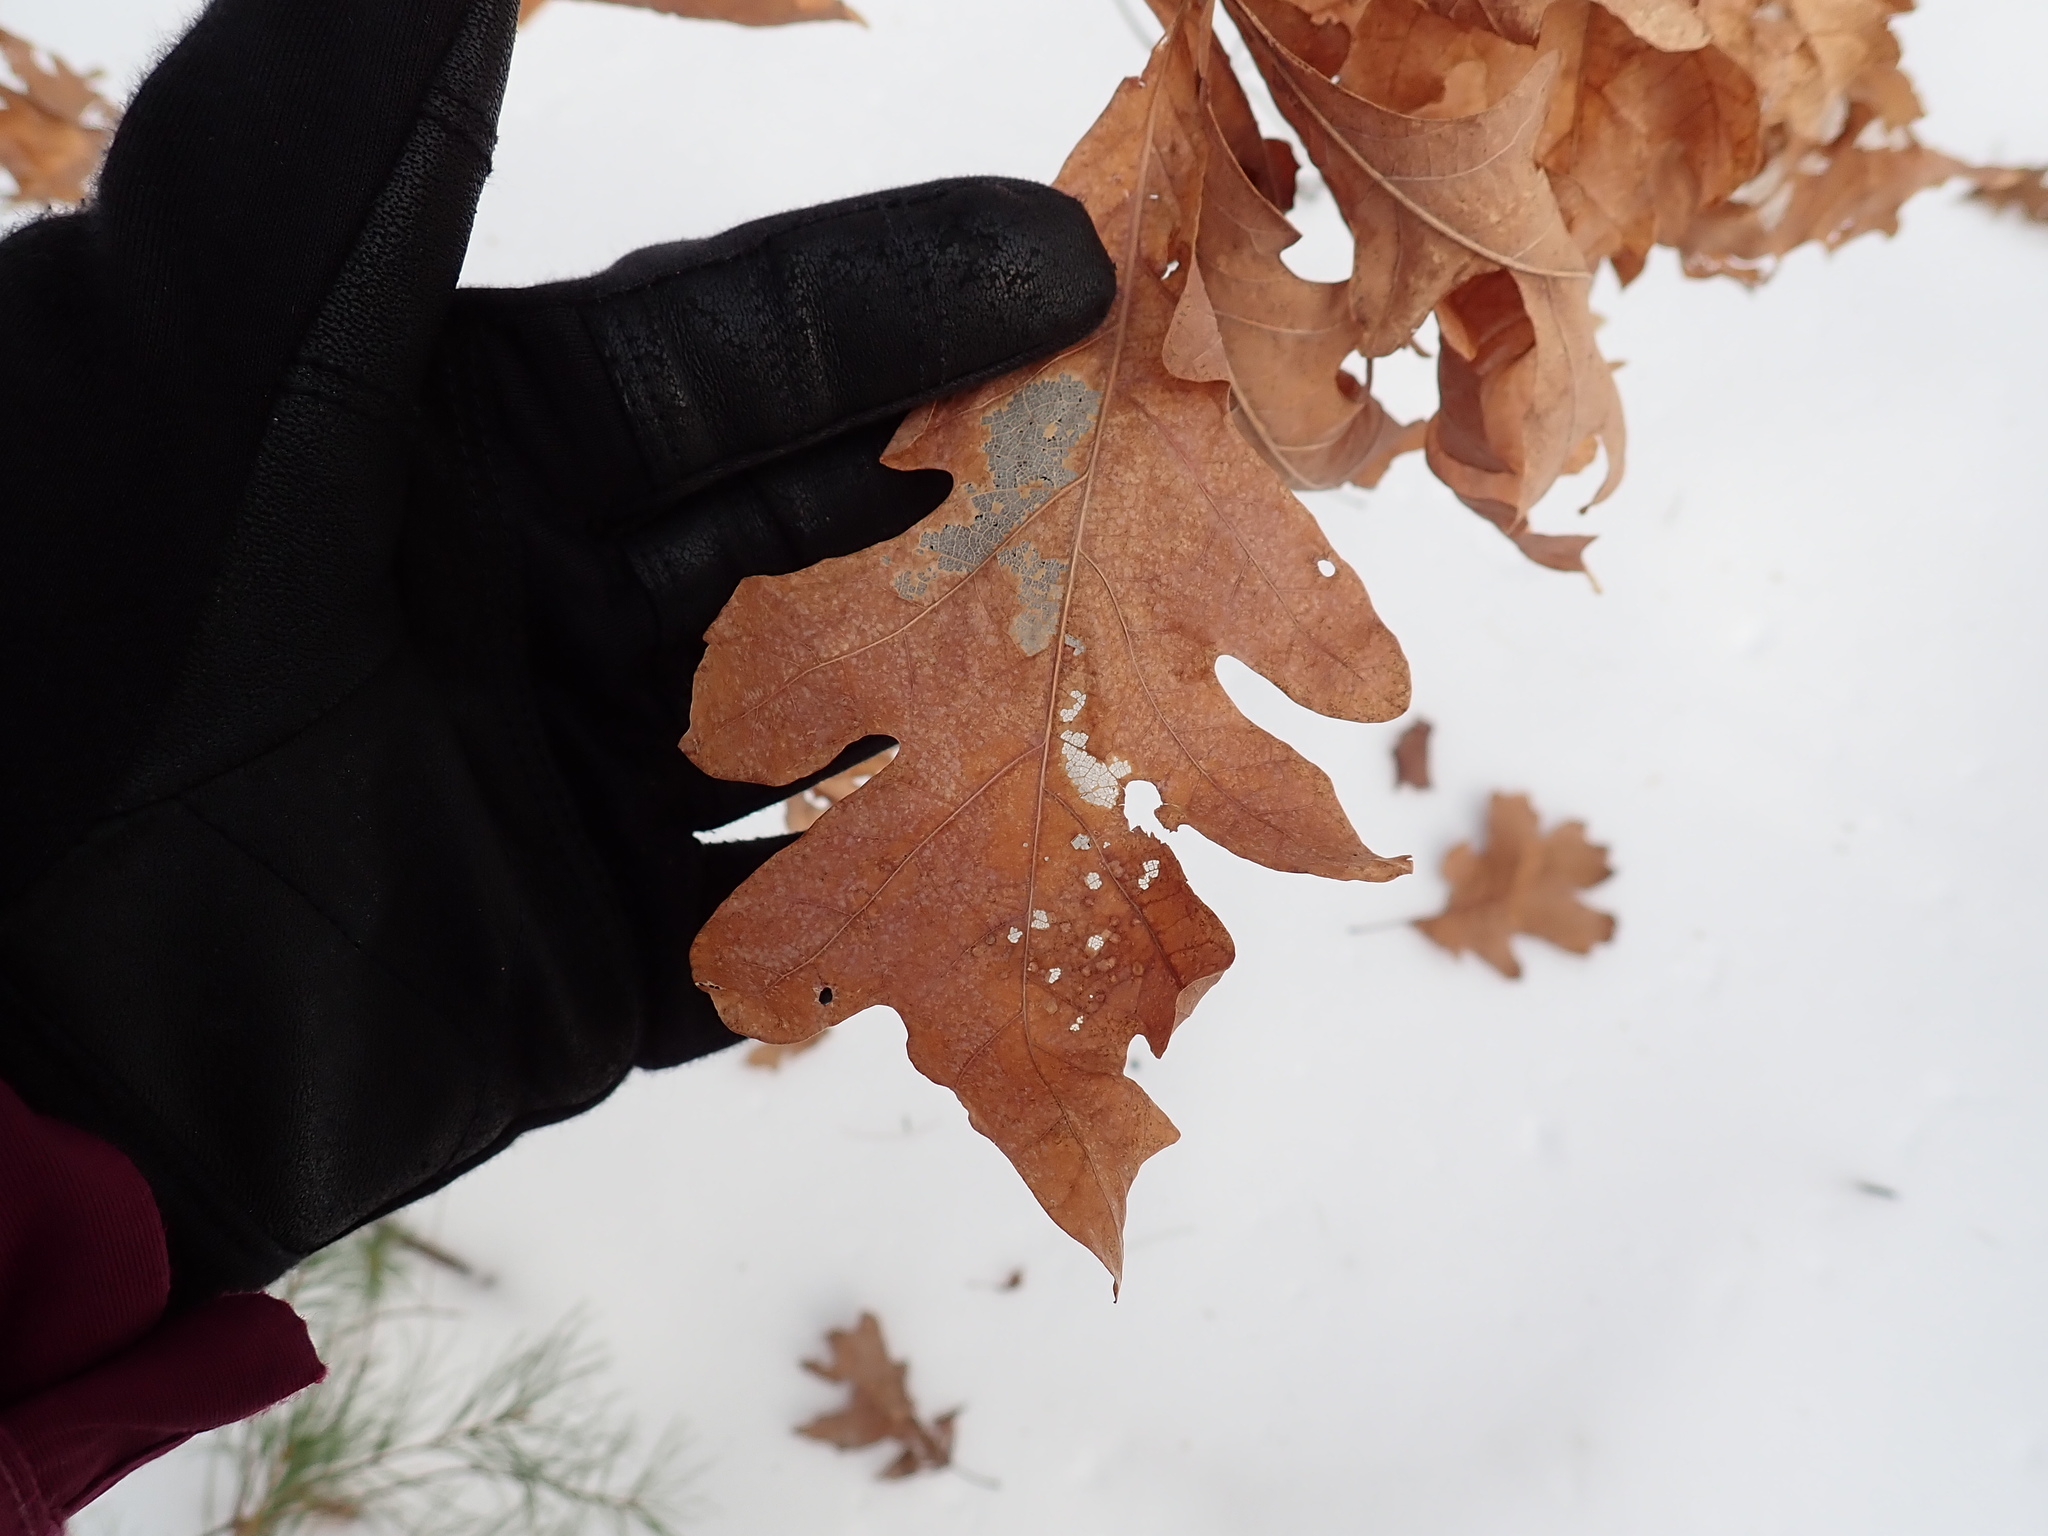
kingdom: Plantae
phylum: Tracheophyta
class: Magnoliopsida
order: Fagales
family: Fagaceae
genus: Quercus
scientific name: Quercus alba
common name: White oak
